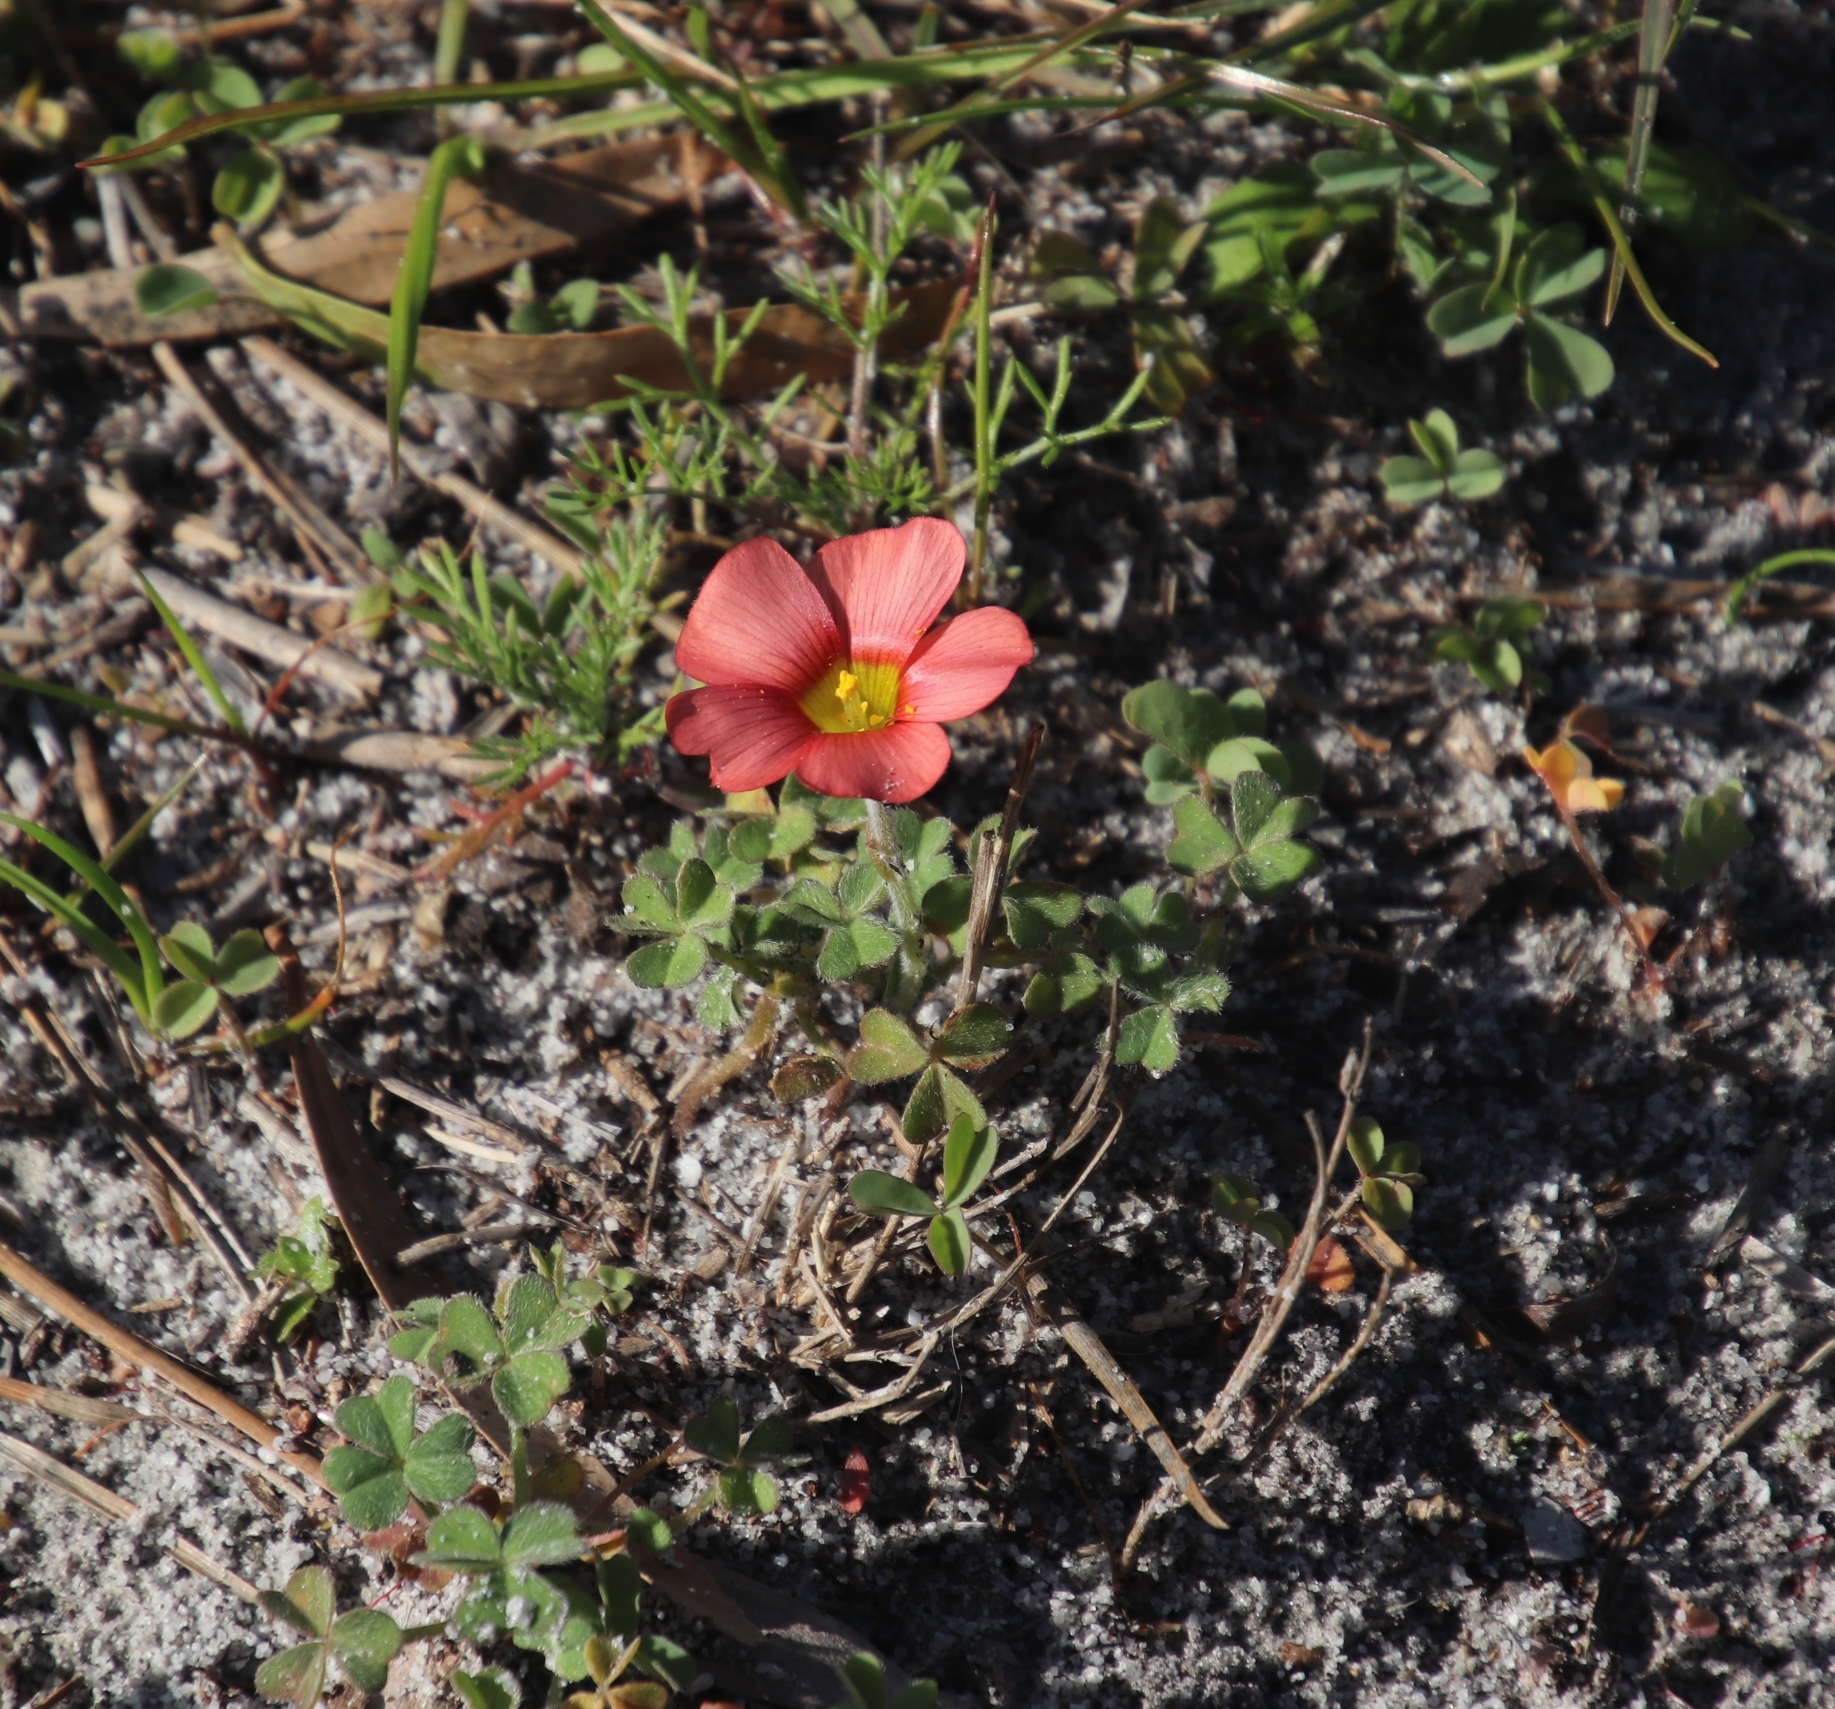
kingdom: Plantae
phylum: Tracheophyta
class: Magnoliopsida
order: Oxalidales
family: Oxalidaceae
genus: Oxalis
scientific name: Oxalis obtusa
